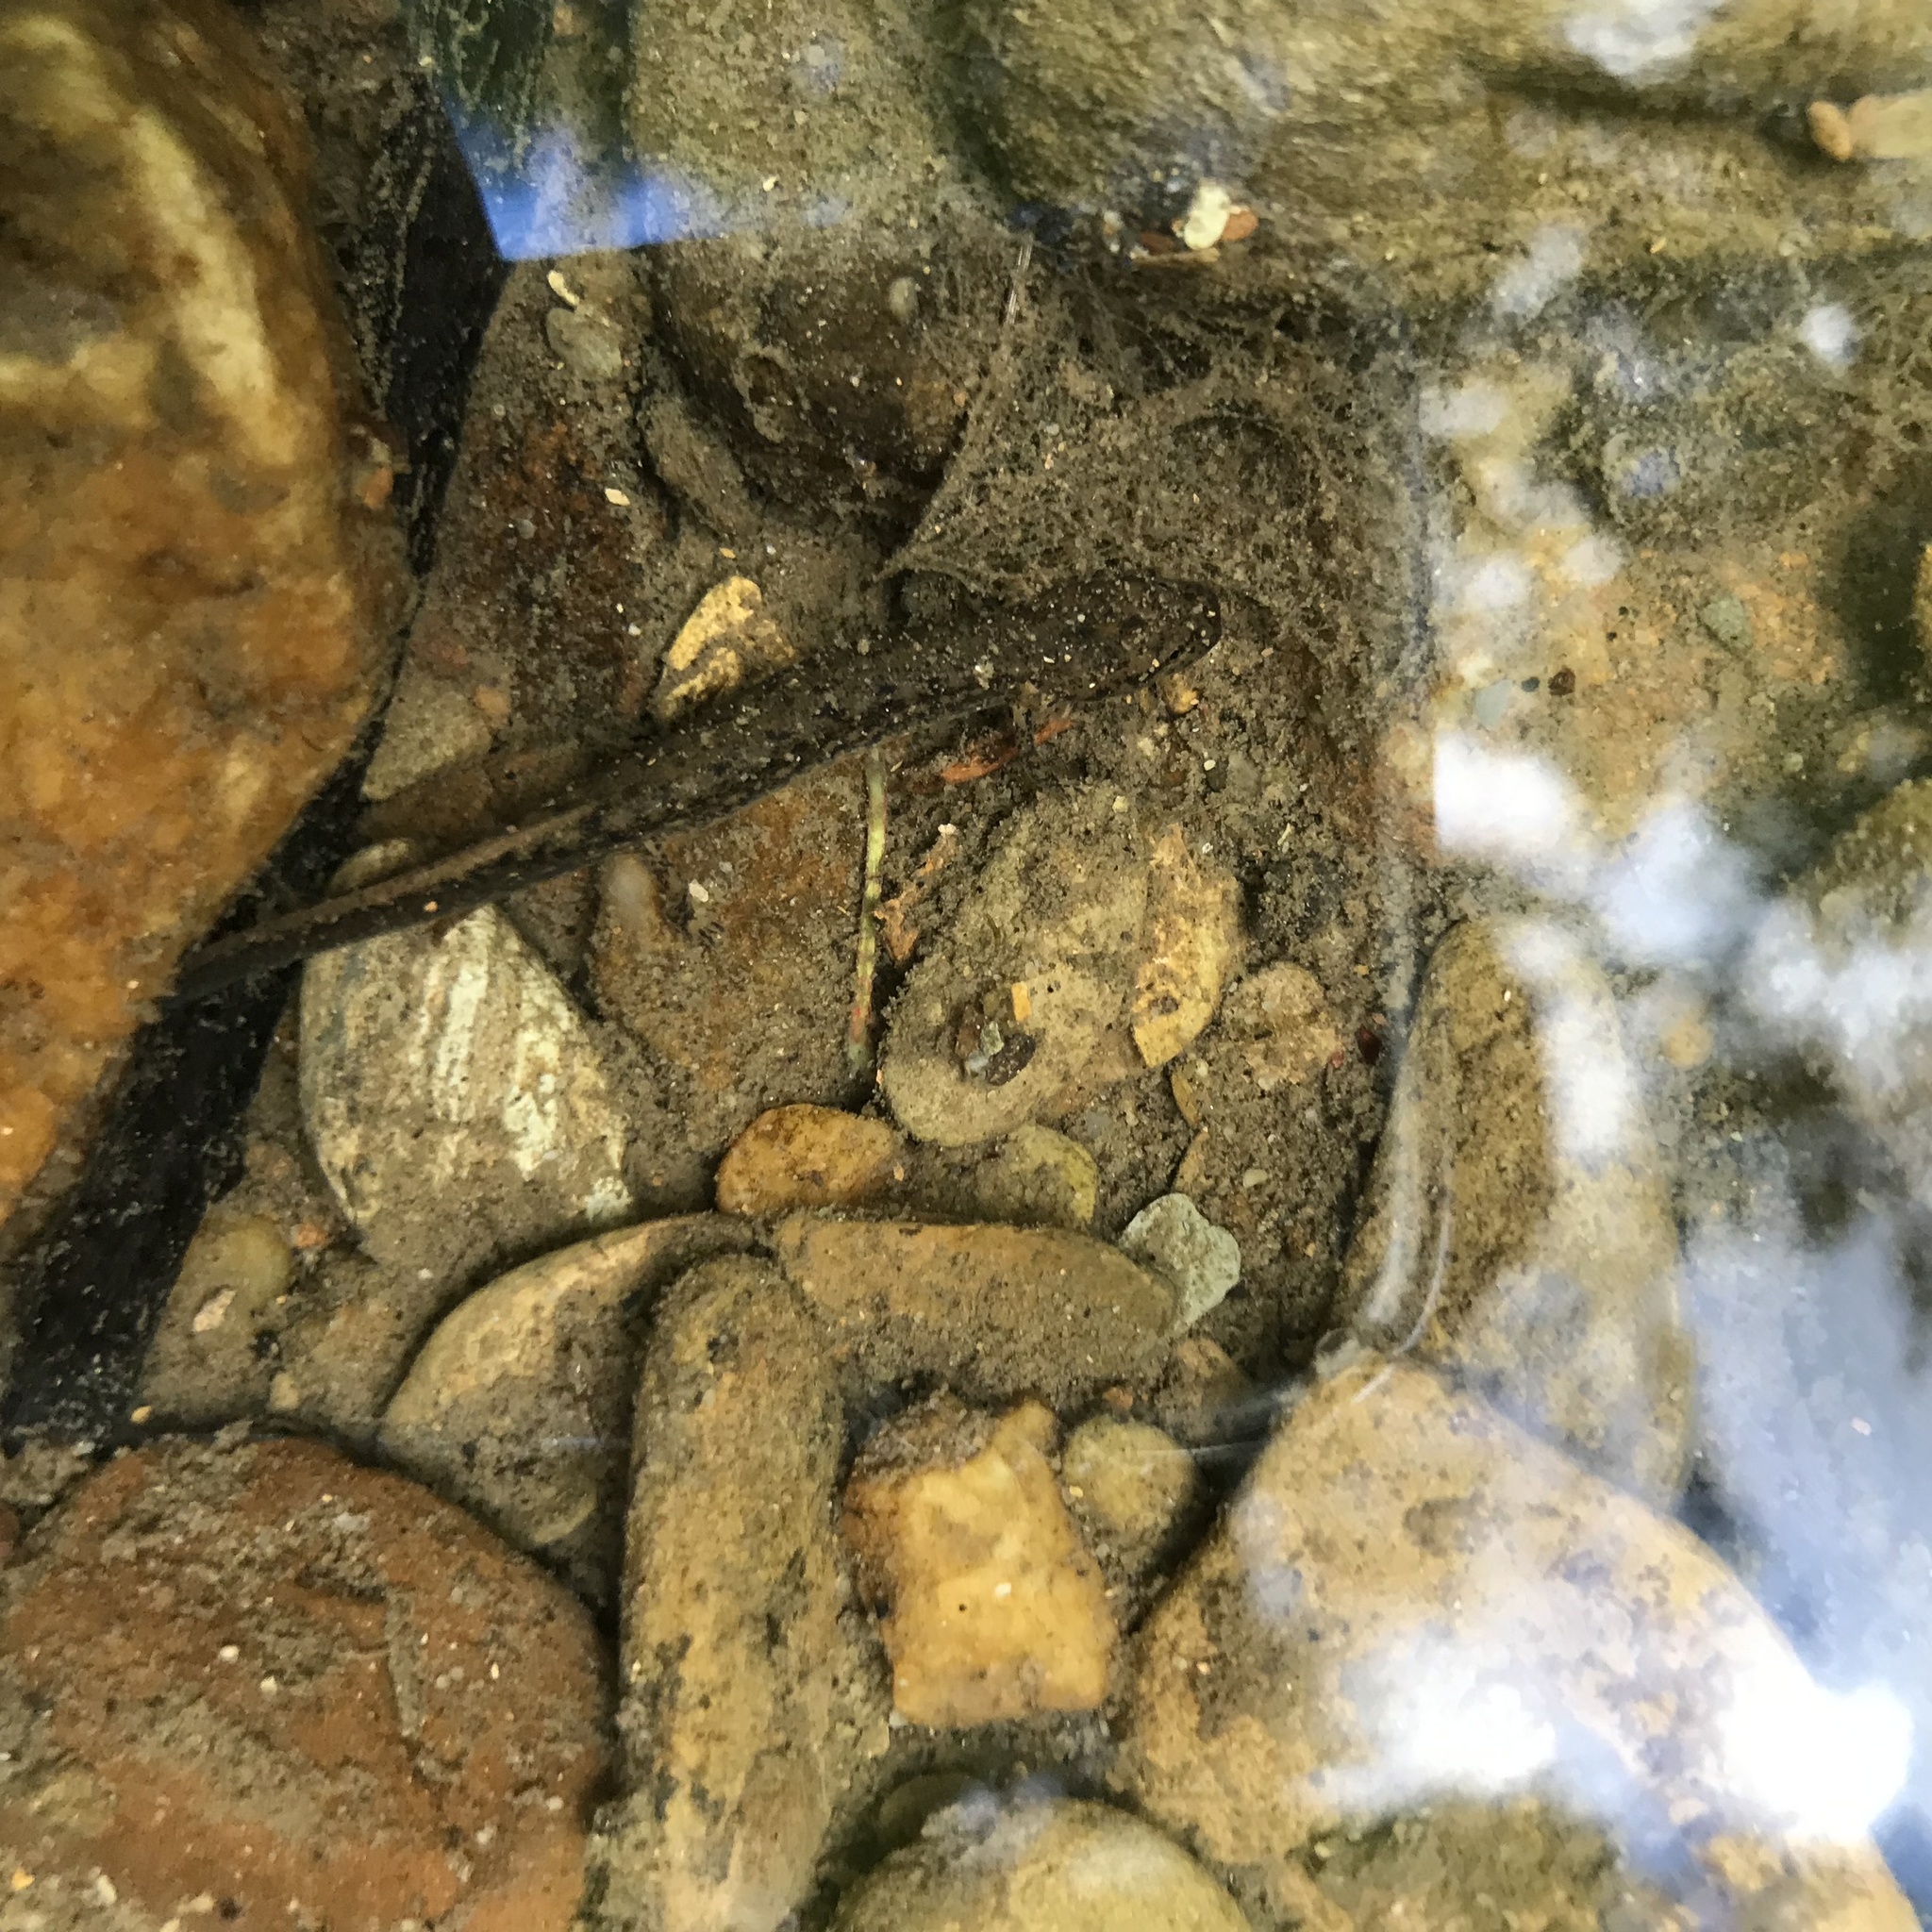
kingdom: Animalia
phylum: Chordata
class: Amphibia
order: Caudata
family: Plethodontidae
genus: Eurycea
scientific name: Eurycea bislineata
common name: Northern two-lined salamander
